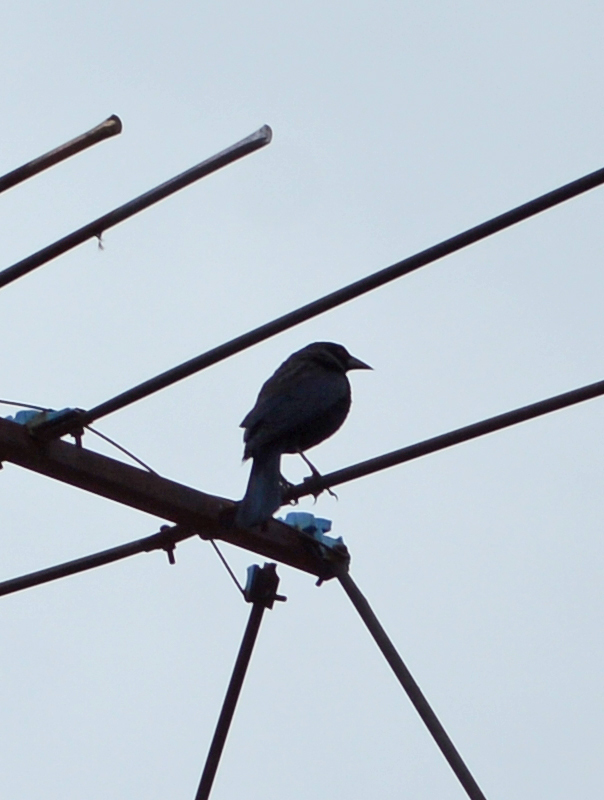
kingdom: Animalia
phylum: Chordata
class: Aves
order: Passeriformes
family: Icteridae
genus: Molothrus
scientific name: Molothrus aeneus
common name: Bronzed cowbird
